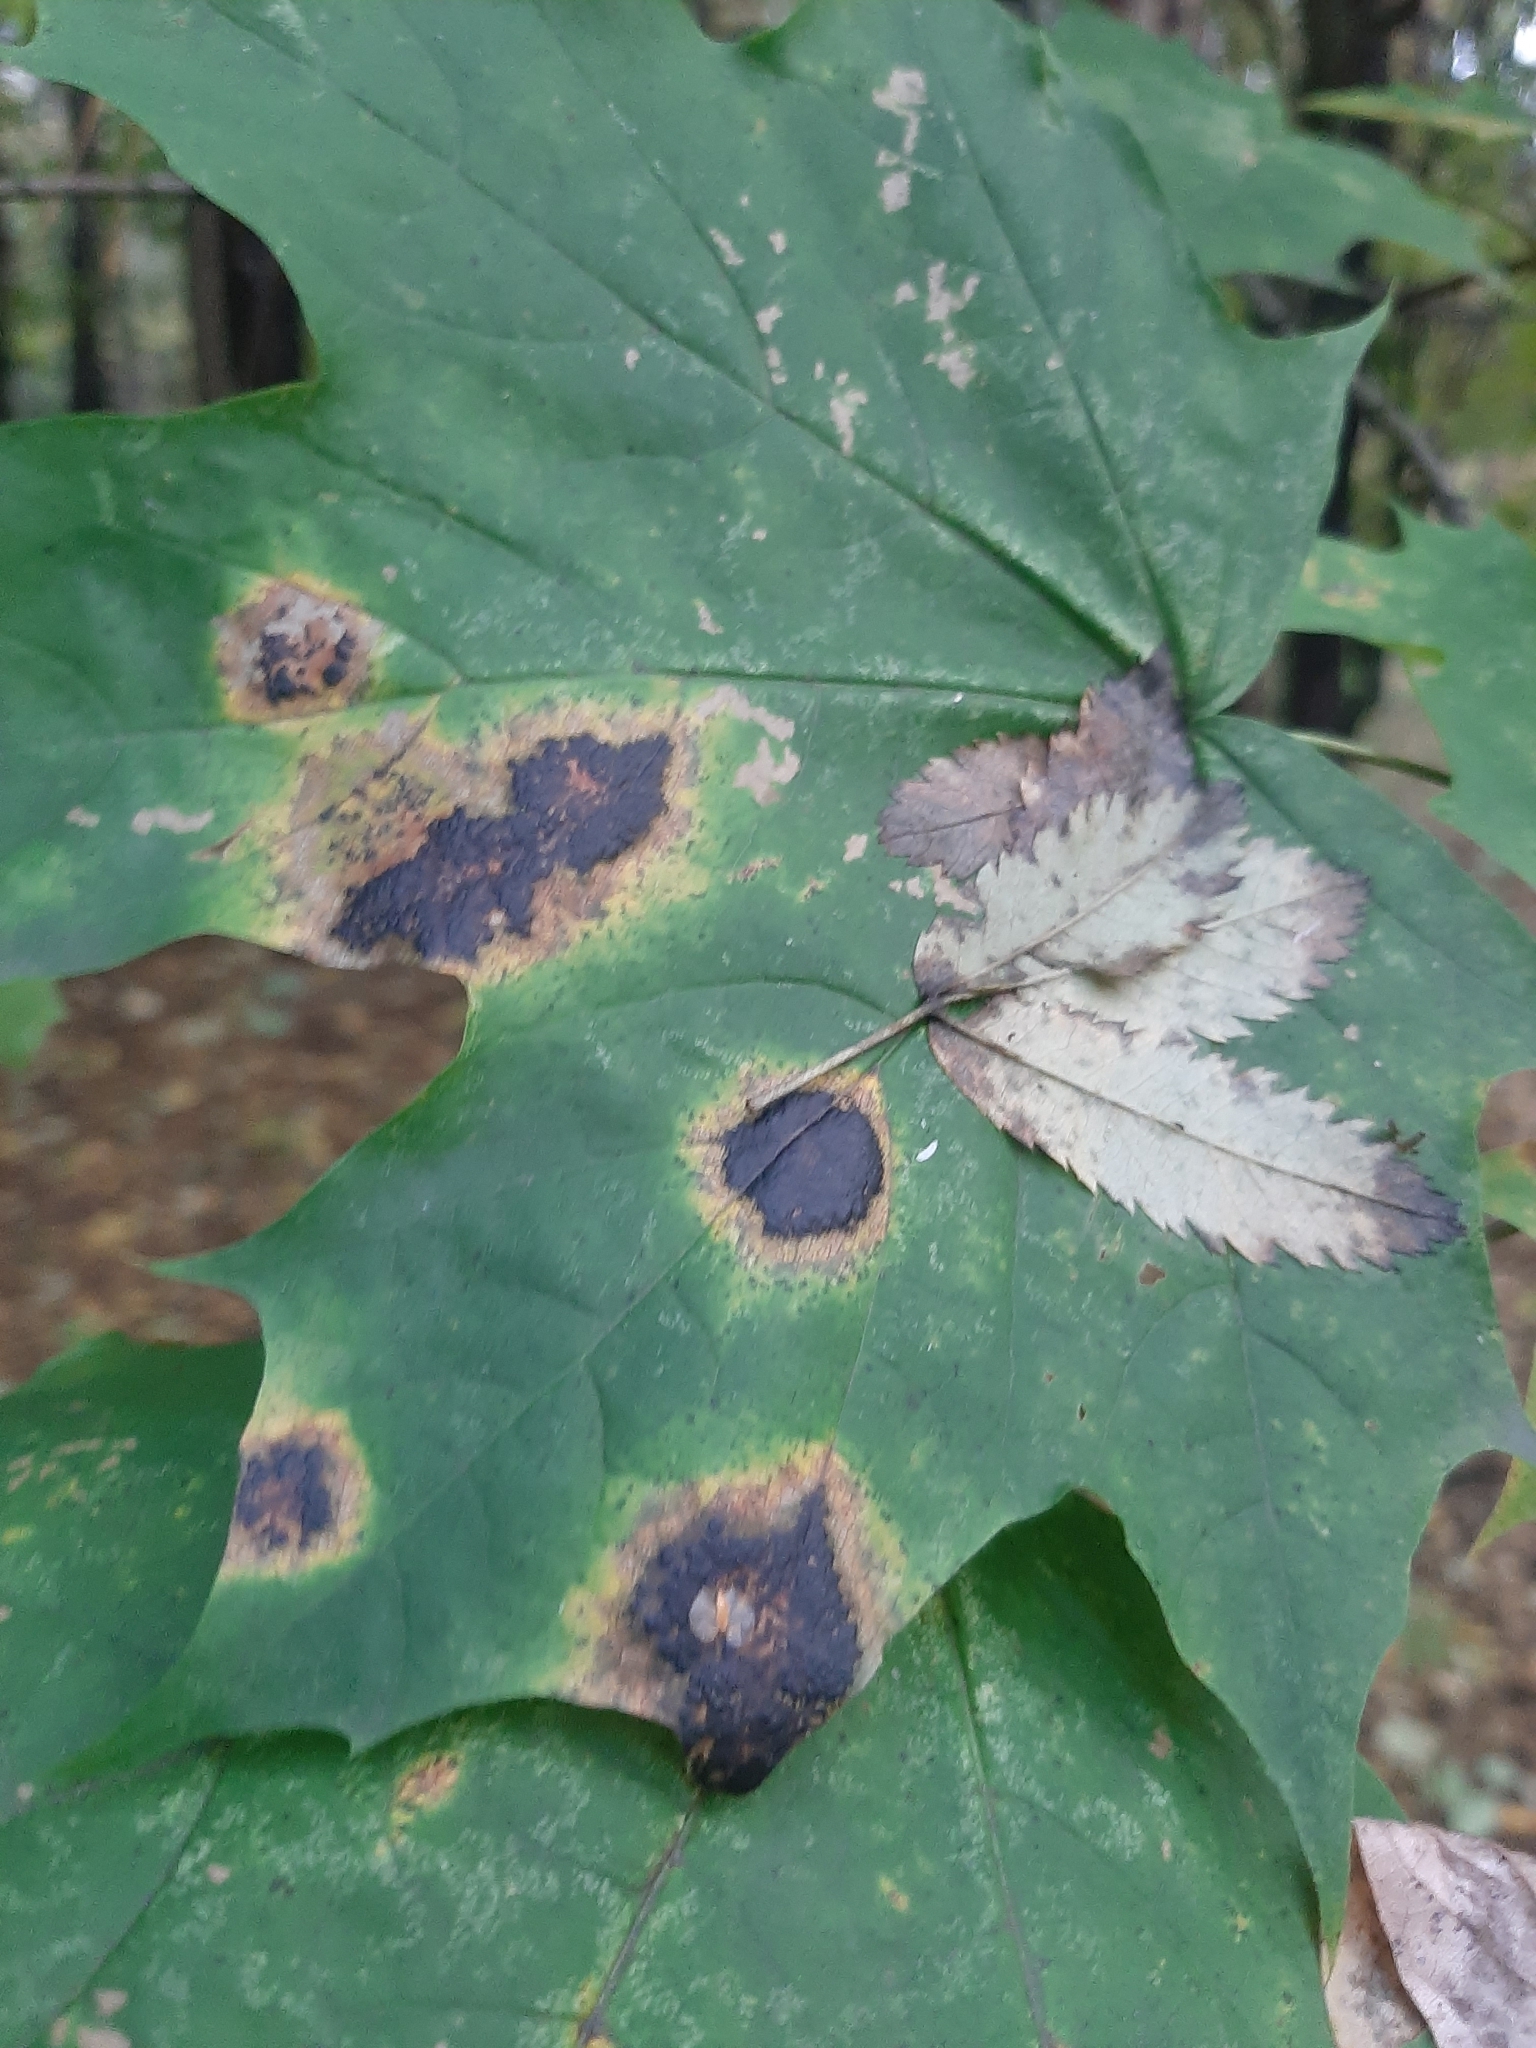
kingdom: Fungi
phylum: Ascomycota
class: Leotiomycetes
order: Rhytismatales
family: Rhytismataceae
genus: Rhytisma
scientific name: Rhytisma acerinum
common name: European tar spot
